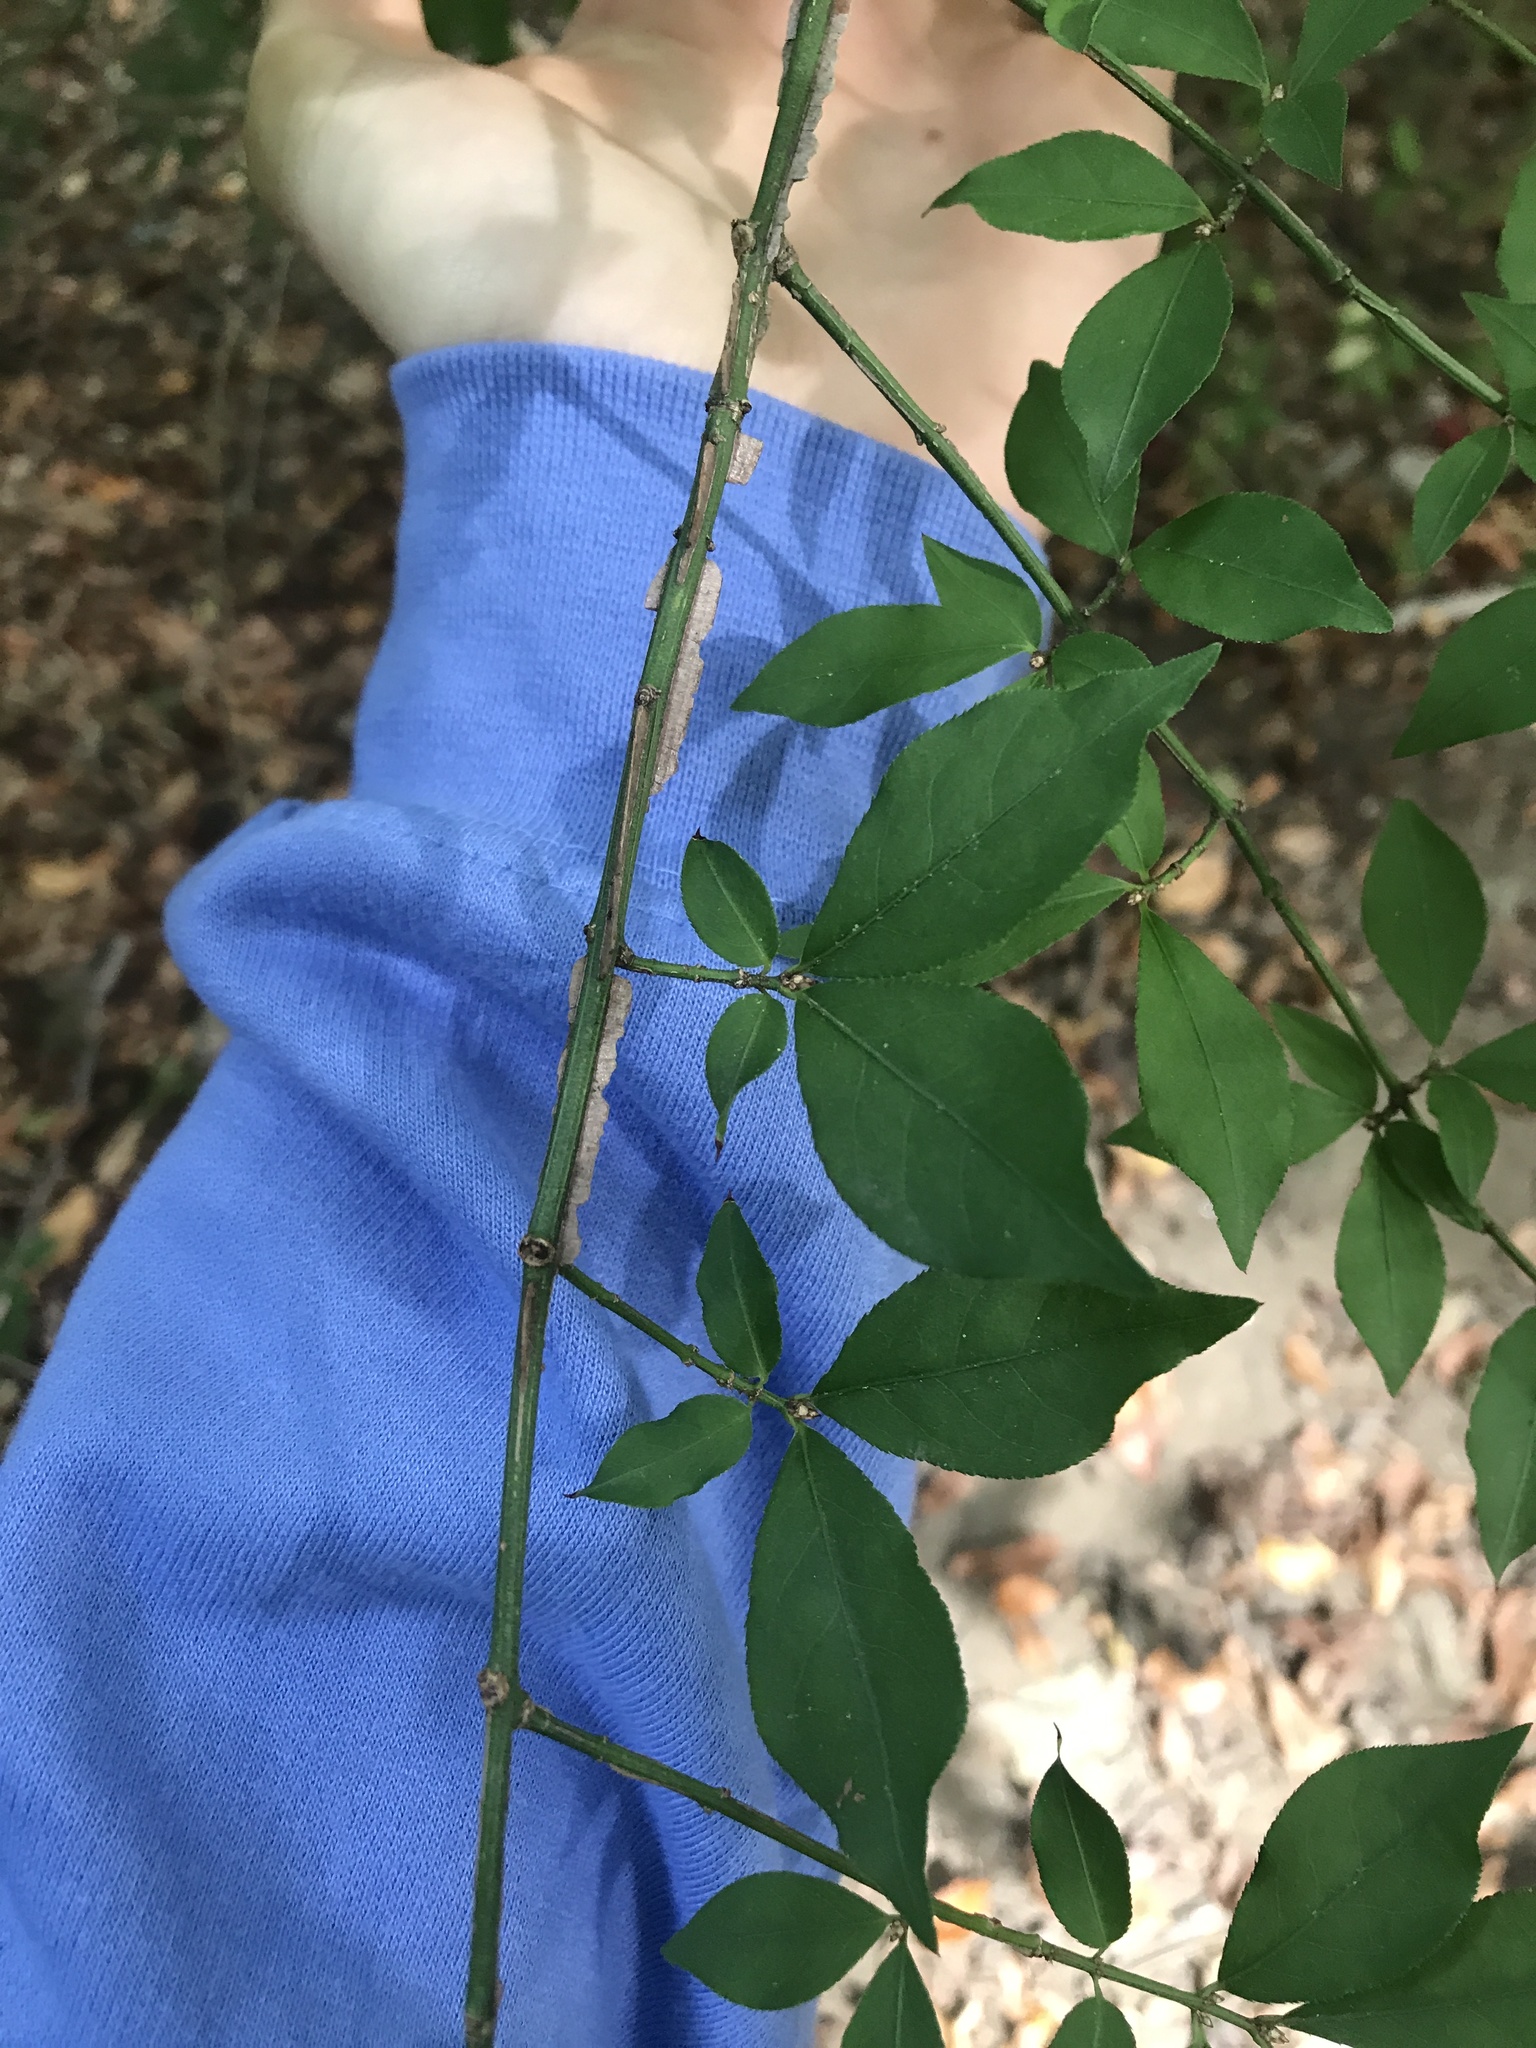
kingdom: Plantae
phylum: Tracheophyta
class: Magnoliopsida
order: Celastrales
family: Celastraceae
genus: Euonymus
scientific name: Euonymus alatus
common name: Winged euonymus
